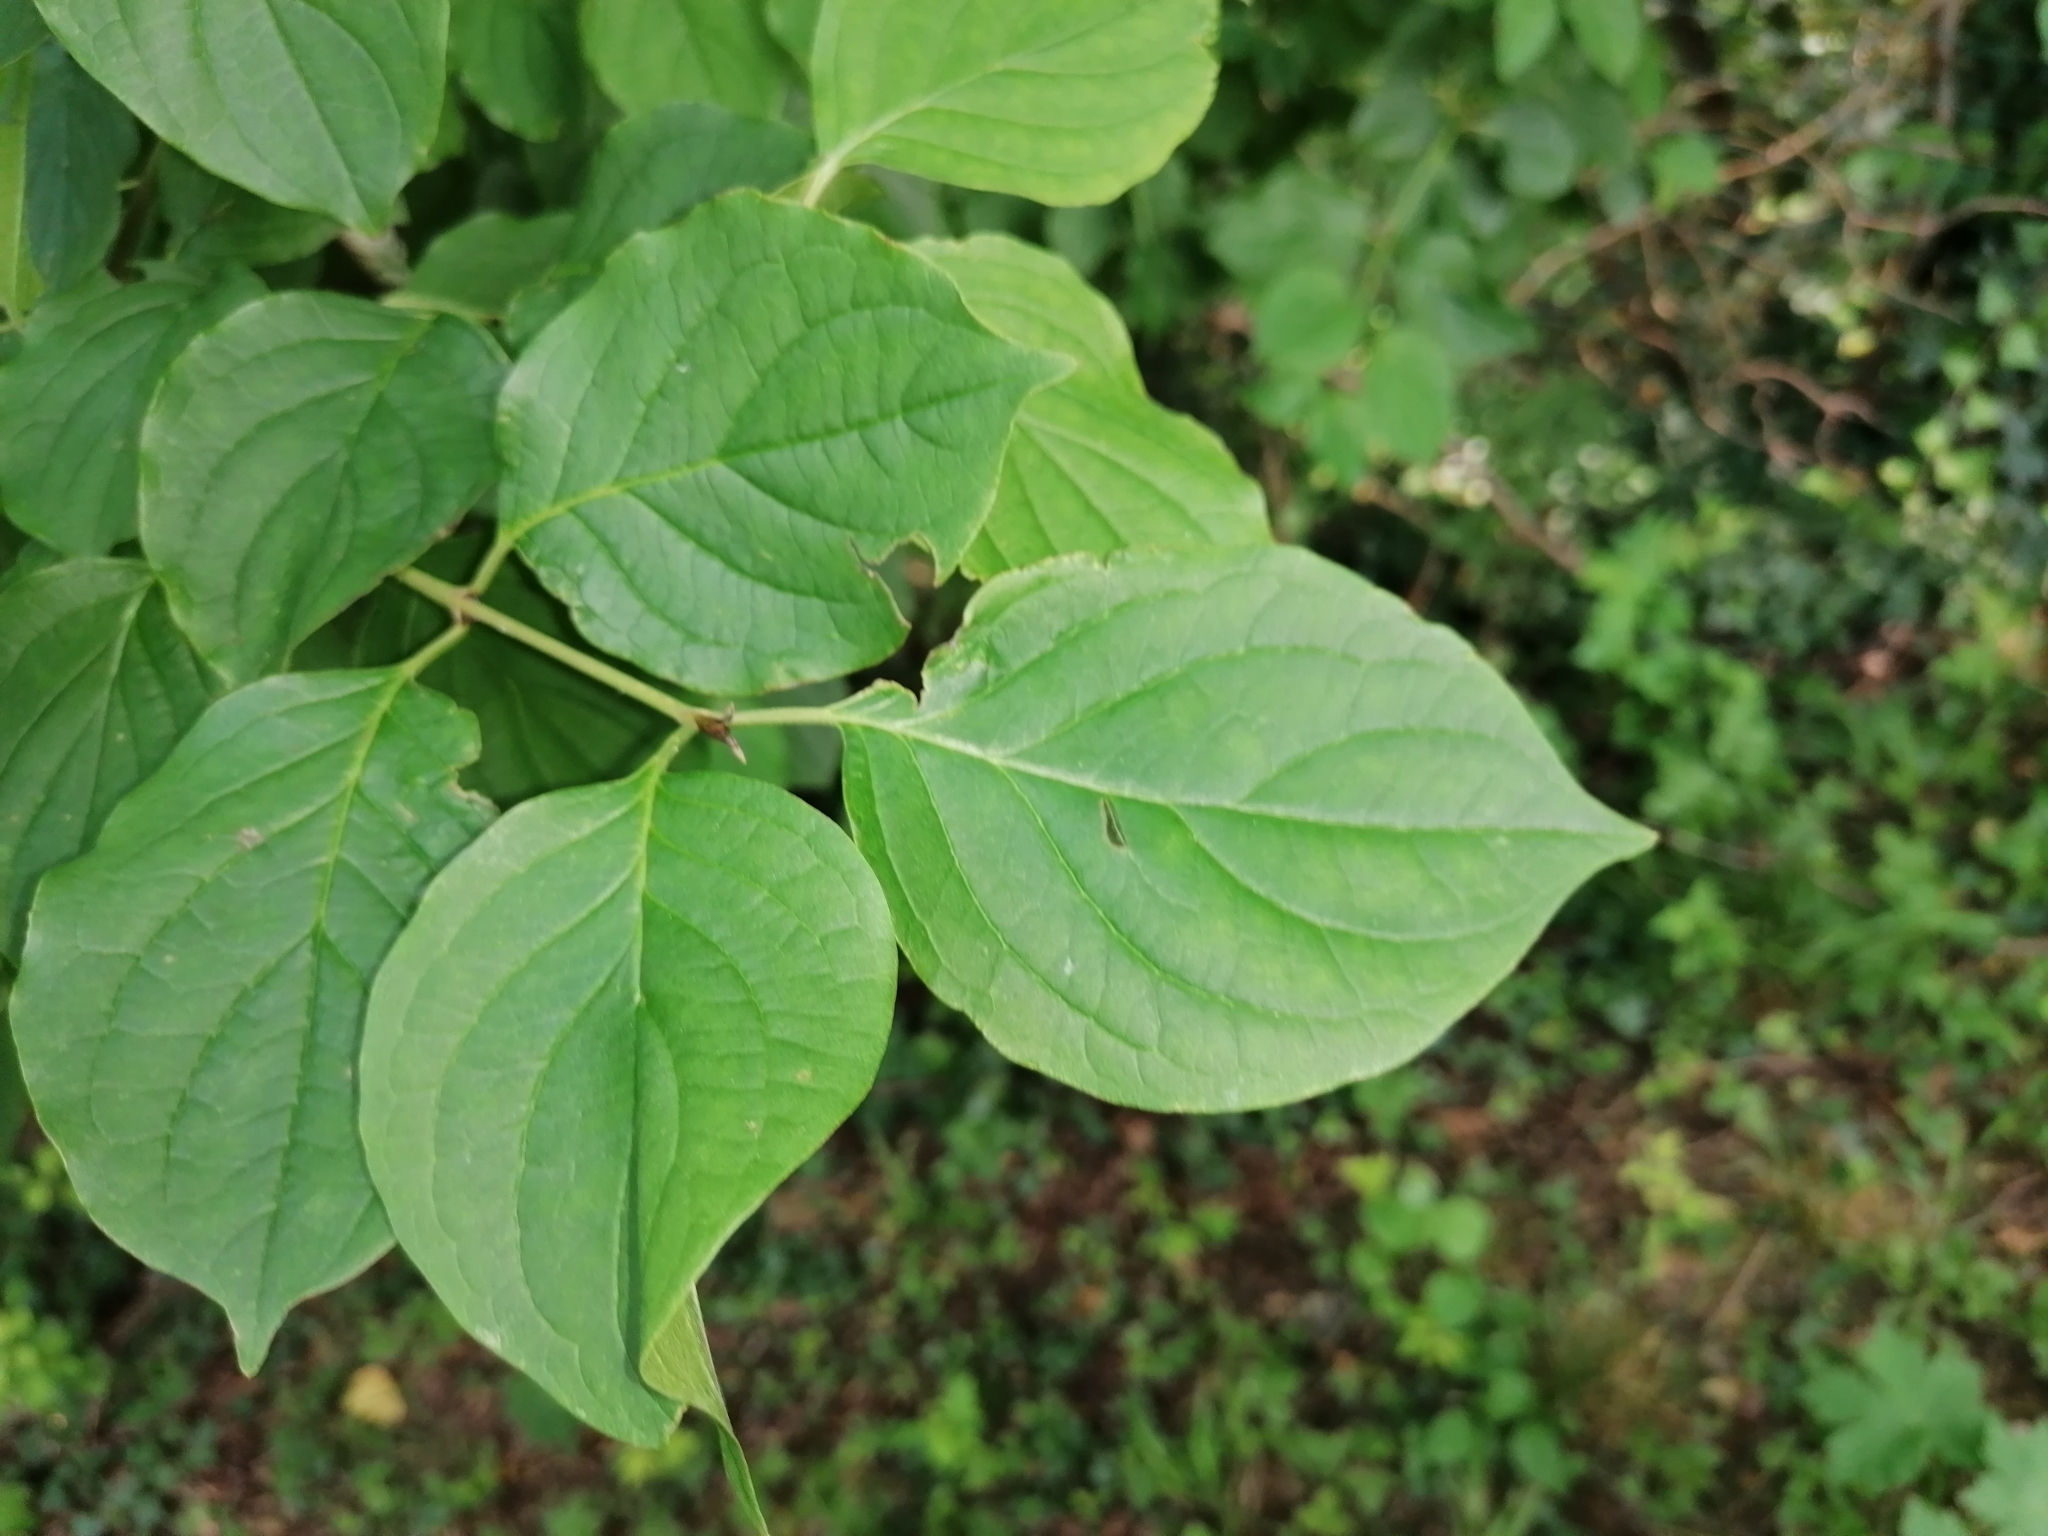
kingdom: Plantae
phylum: Tracheophyta
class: Magnoliopsida
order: Cornales
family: Cornaceae
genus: Cornus
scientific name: Cornus sanguinea
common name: Dogwood
